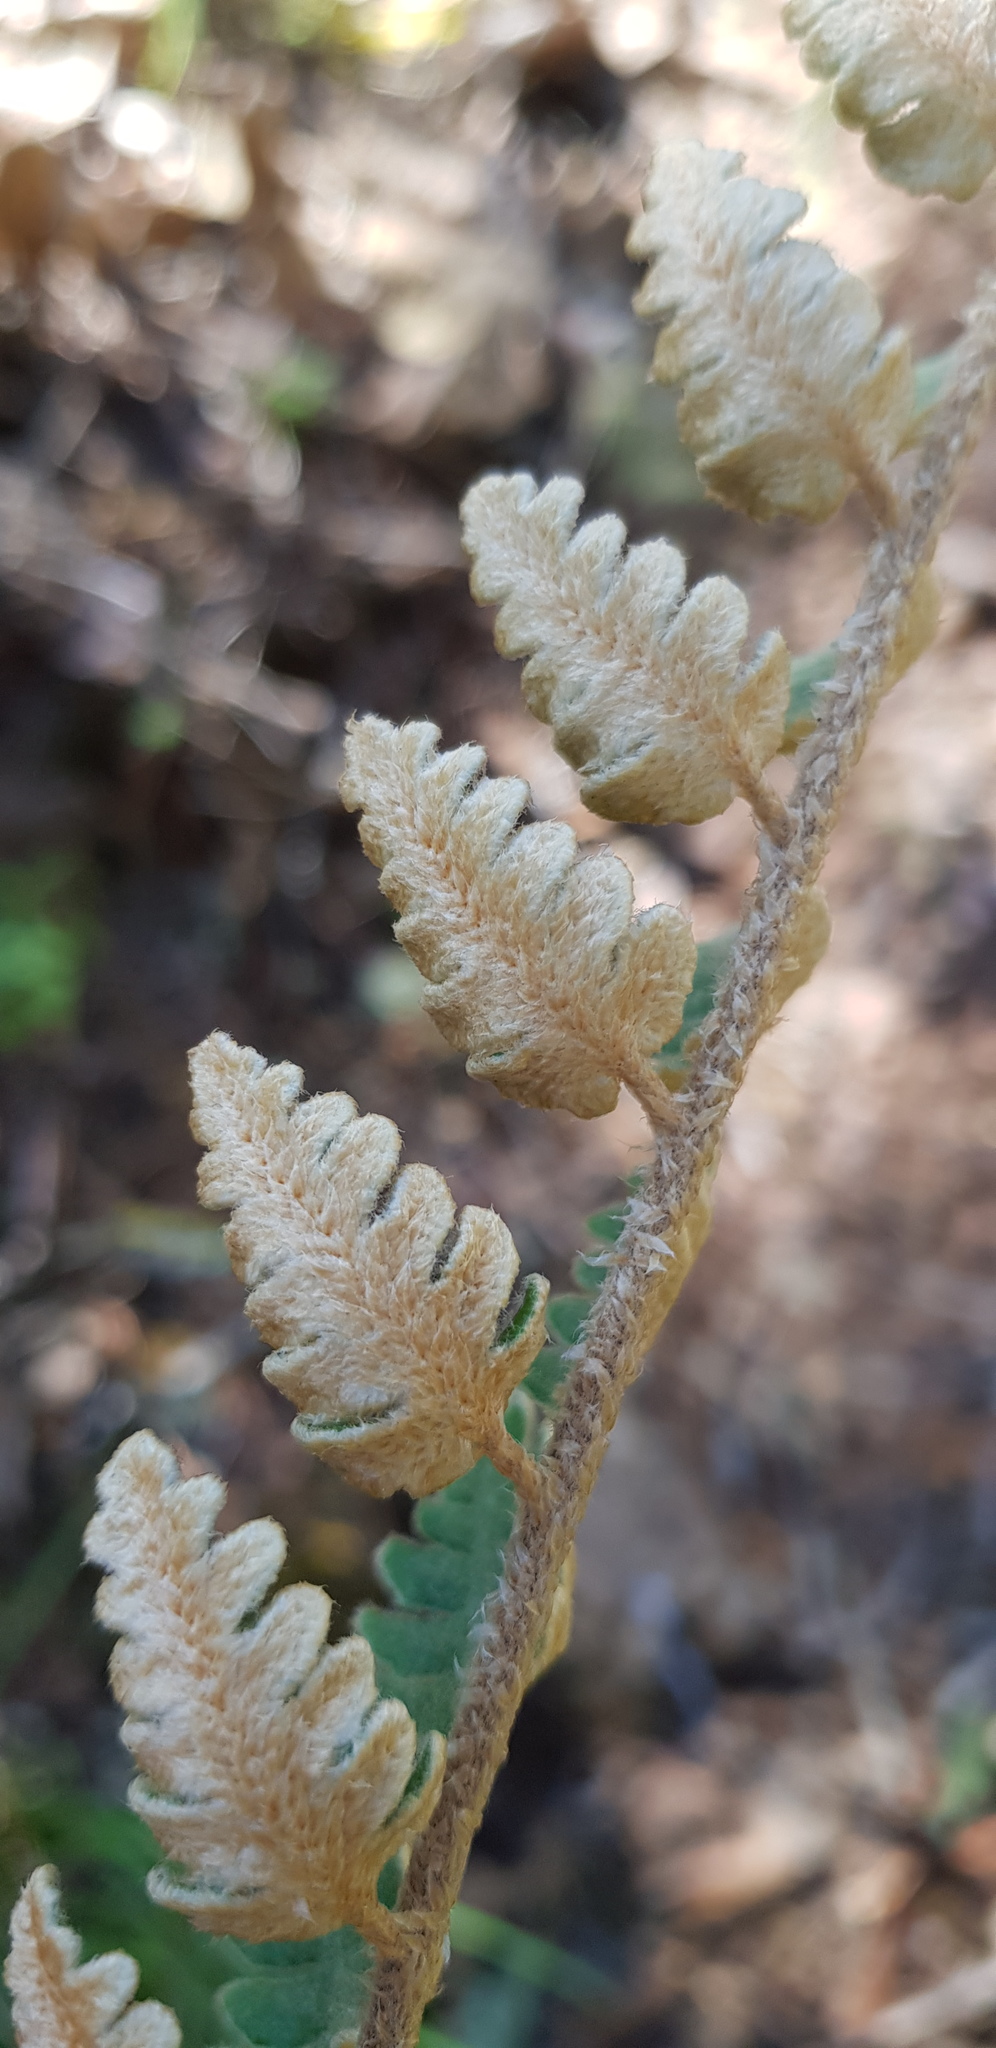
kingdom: Plantae
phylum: Tracheophyta
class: Polypodiopsida
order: Polypodiales
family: Pteridaceae
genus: Astrolepis
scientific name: Astrolepis sinuata
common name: Wavy scaly cloakfern
